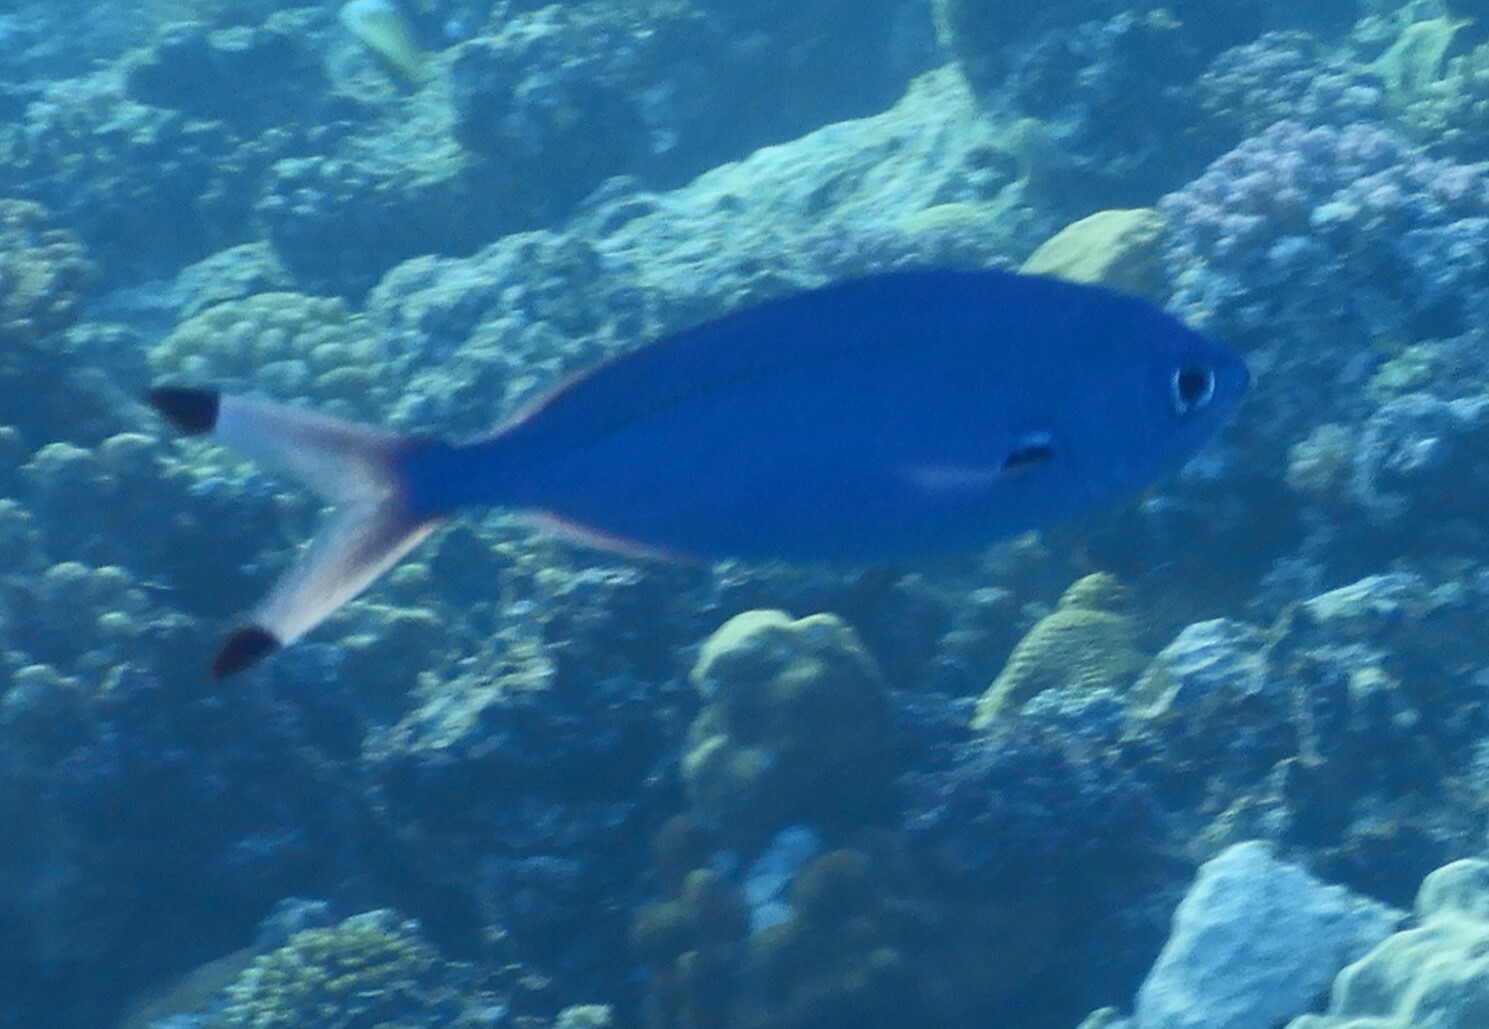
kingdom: Animalia
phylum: Chordata
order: Perciformes
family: Caesionidae
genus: Caesio
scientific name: Caesio lunaris
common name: Blue fusilier
